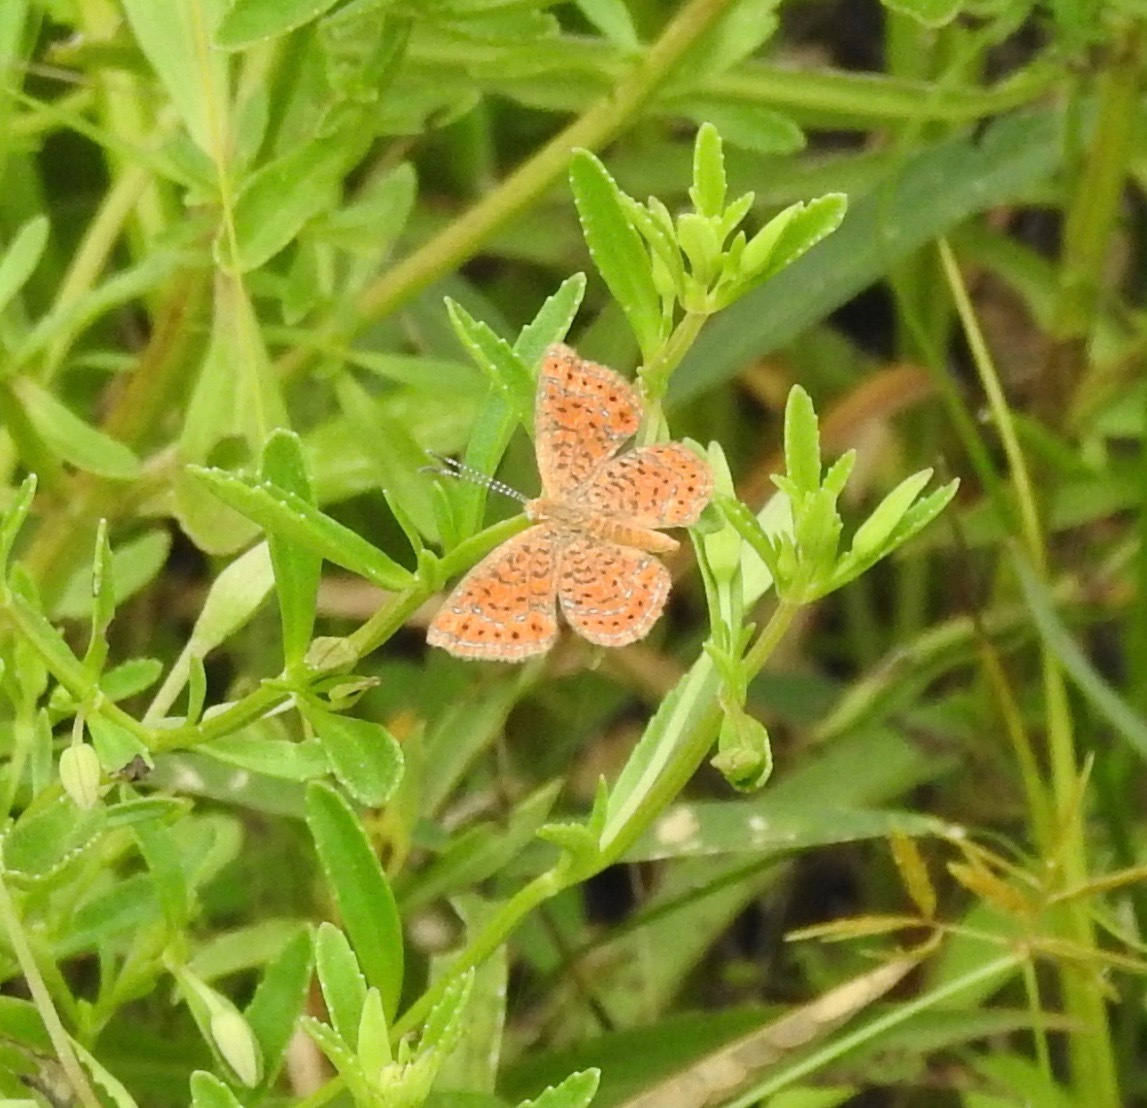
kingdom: Animalia
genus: Calephelis
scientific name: Calephelis virginiensis
